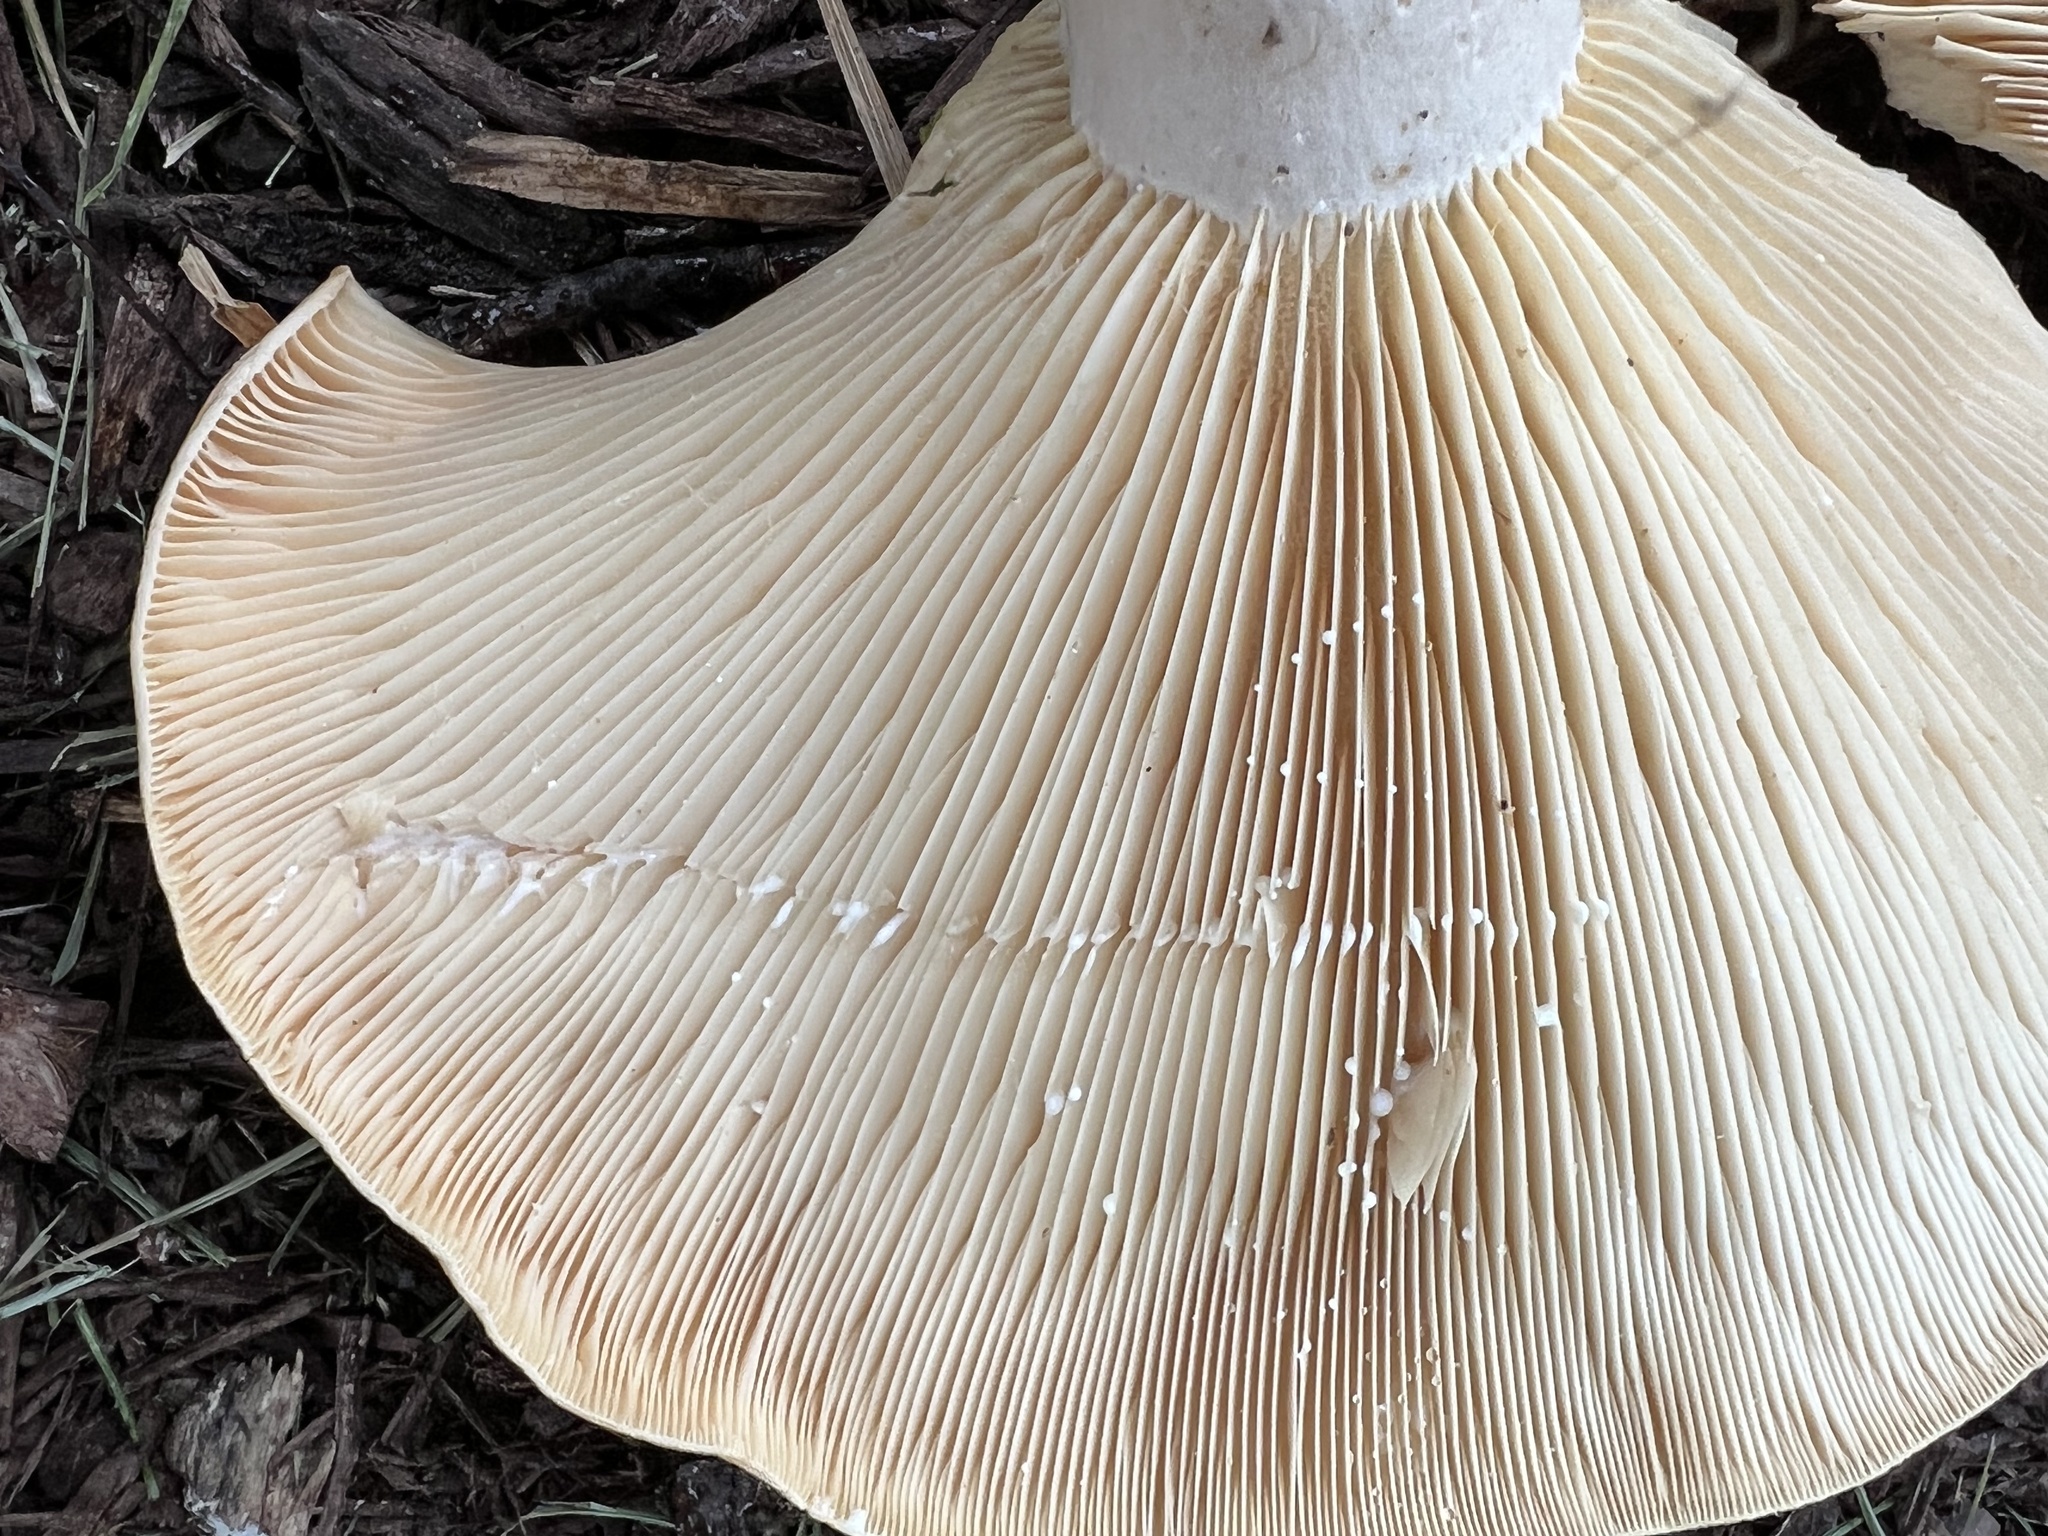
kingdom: Fungi
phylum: Basidiomycota
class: Agaricomycetes
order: Russulales
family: Russulaceae
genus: Lactarius
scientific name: Lactarius psammicola
